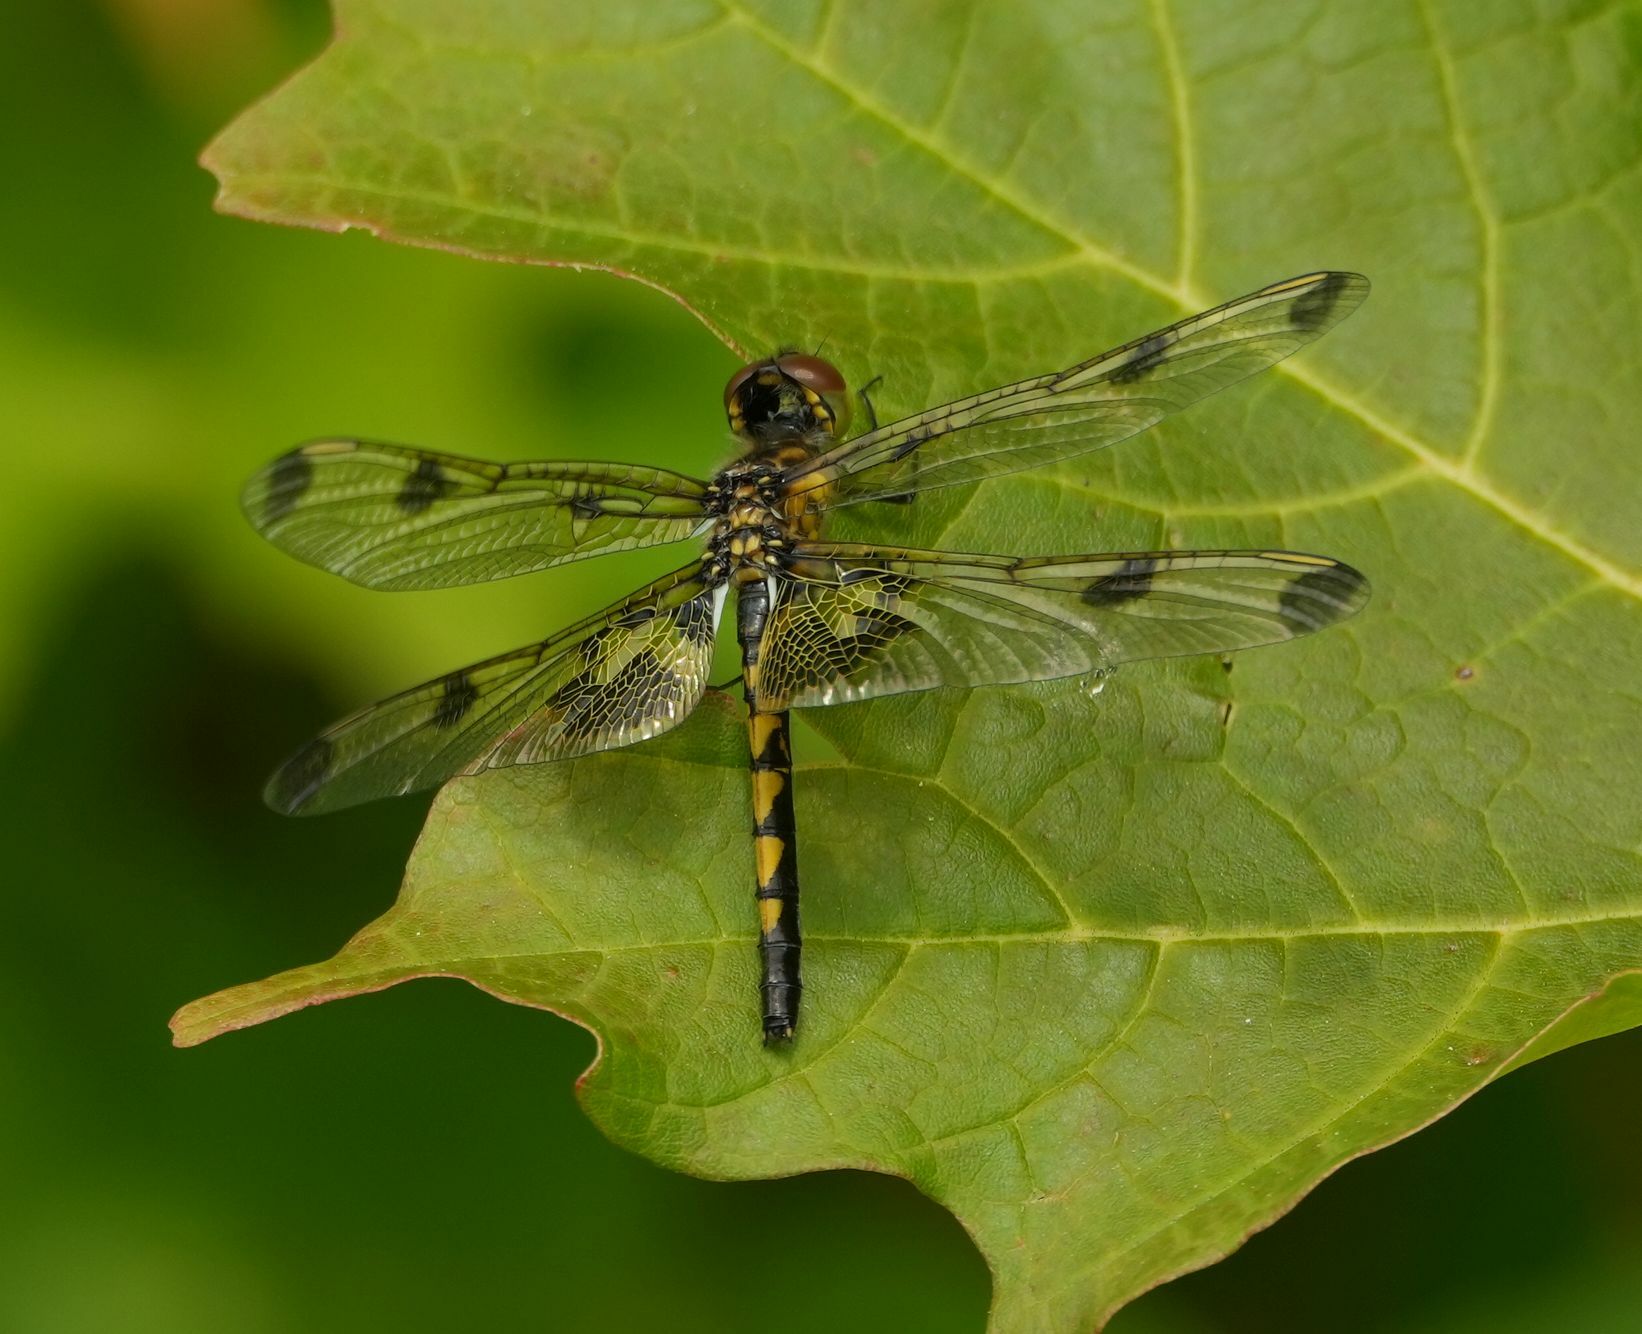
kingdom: Animalia
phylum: Arthropoda
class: Insecta
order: Odonata
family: Libellulidae
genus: Celithemis
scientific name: Celithemis elisa
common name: Calico pennant
